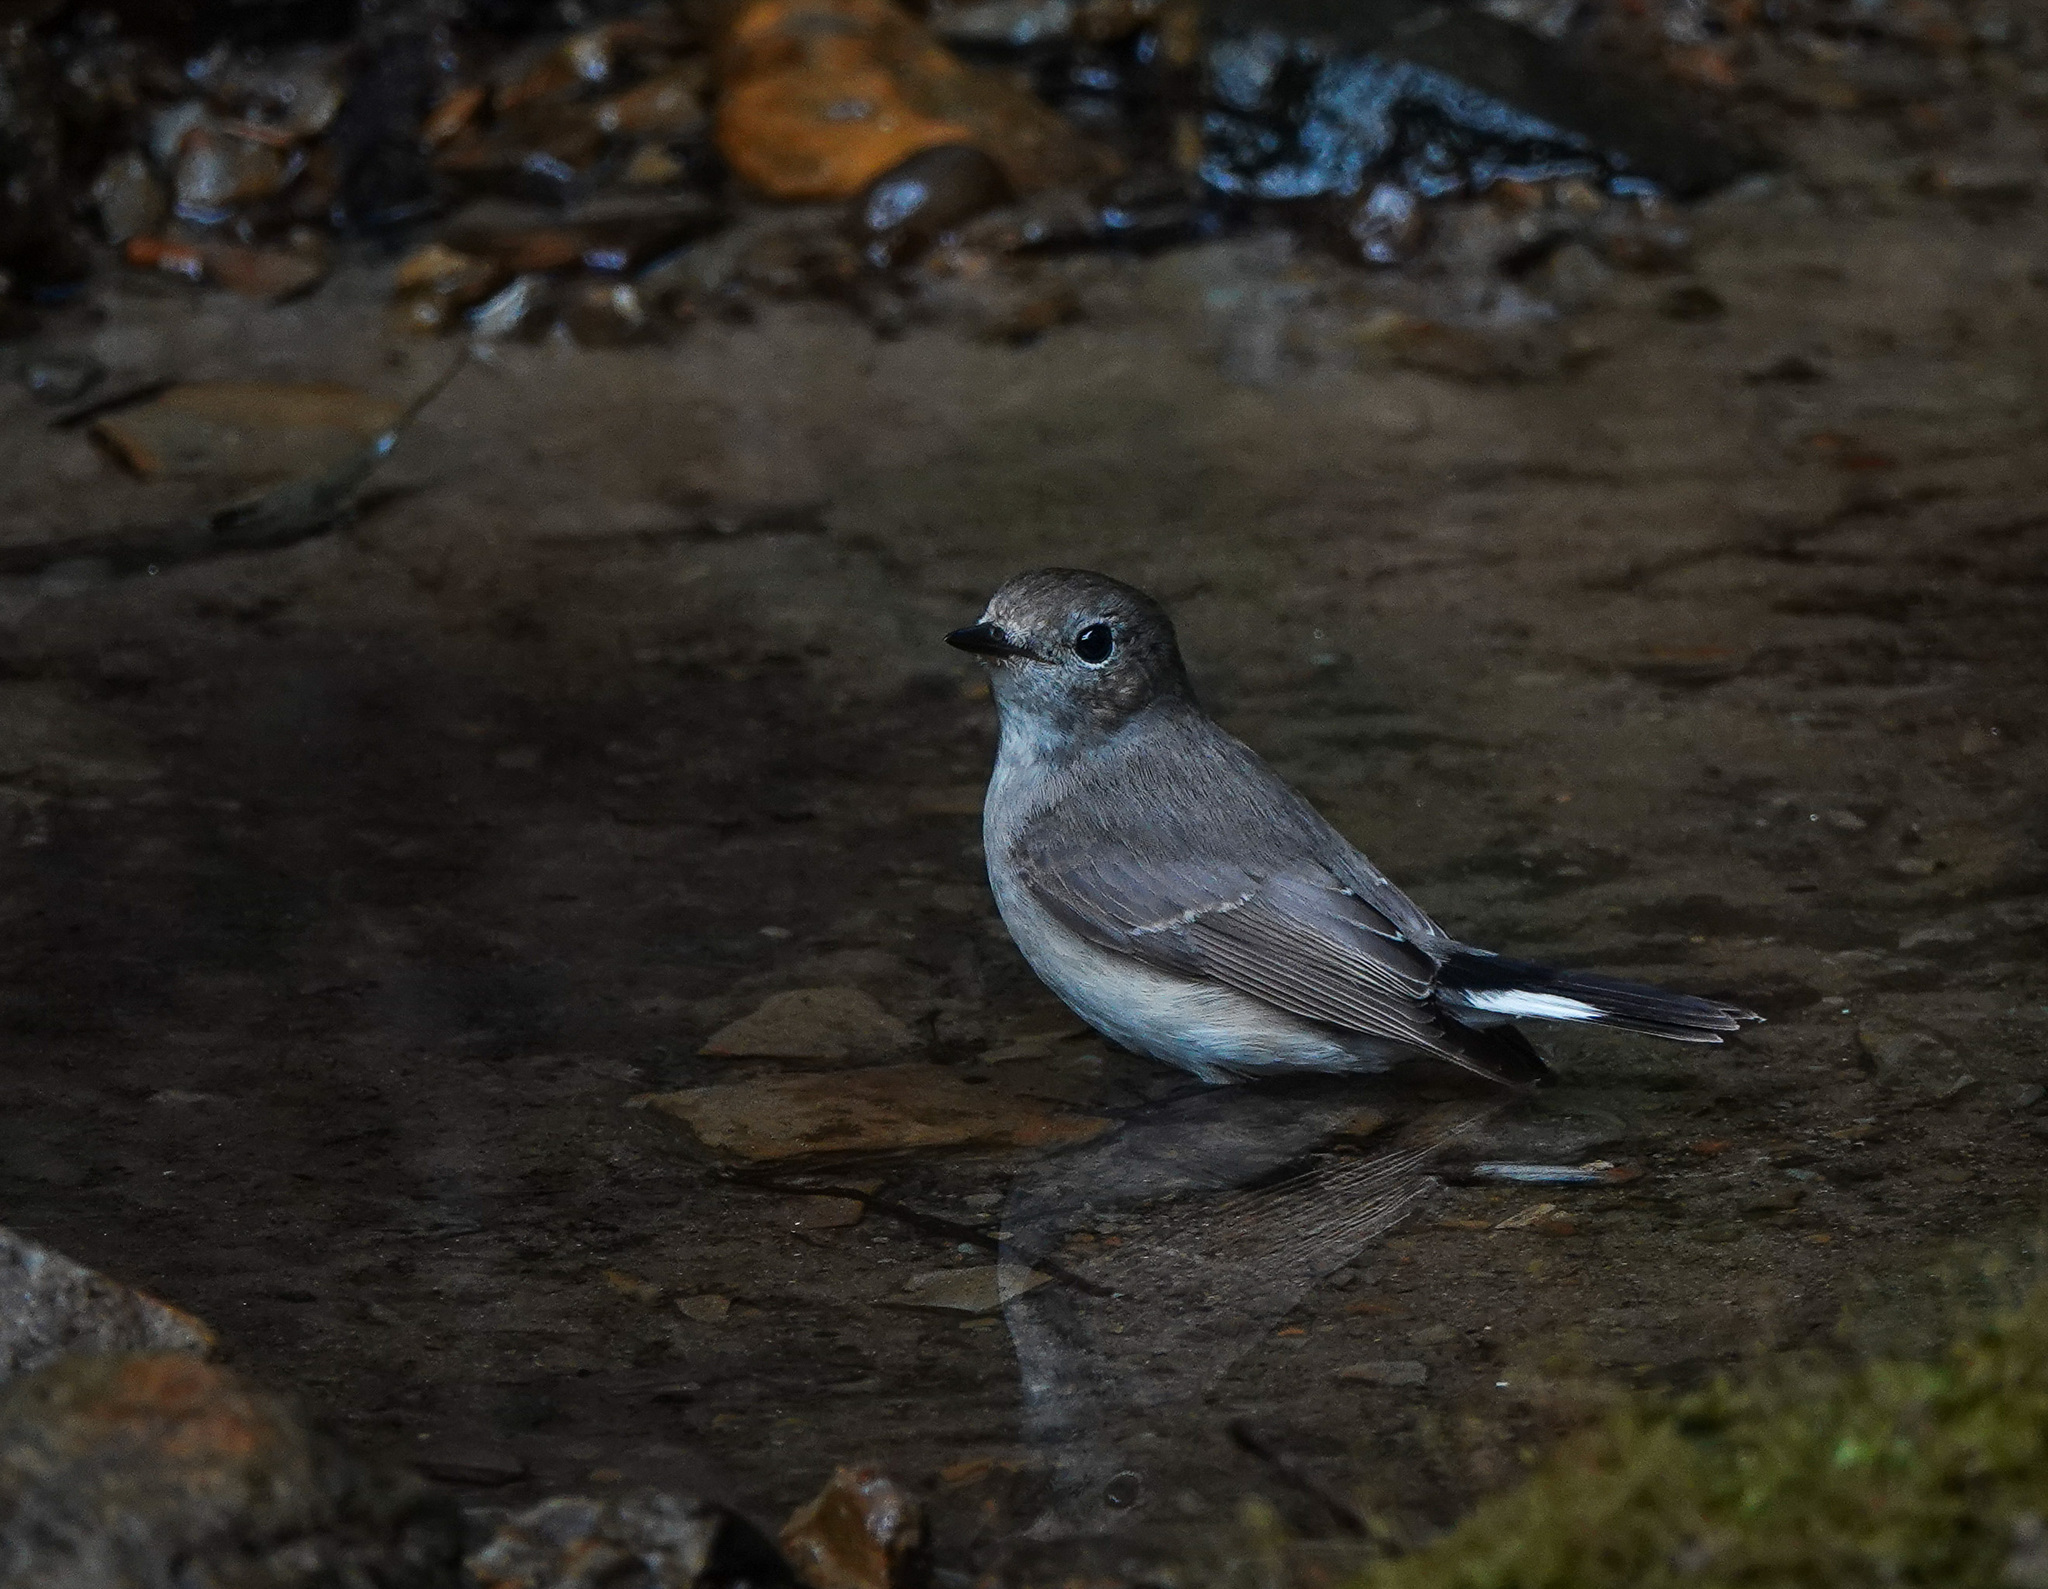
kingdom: Animalia
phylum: Chordata
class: Aves
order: Passeriformes
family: Muscicapidae
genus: Ficedula
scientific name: Ficedula albicilla
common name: Taiga flycatcher
